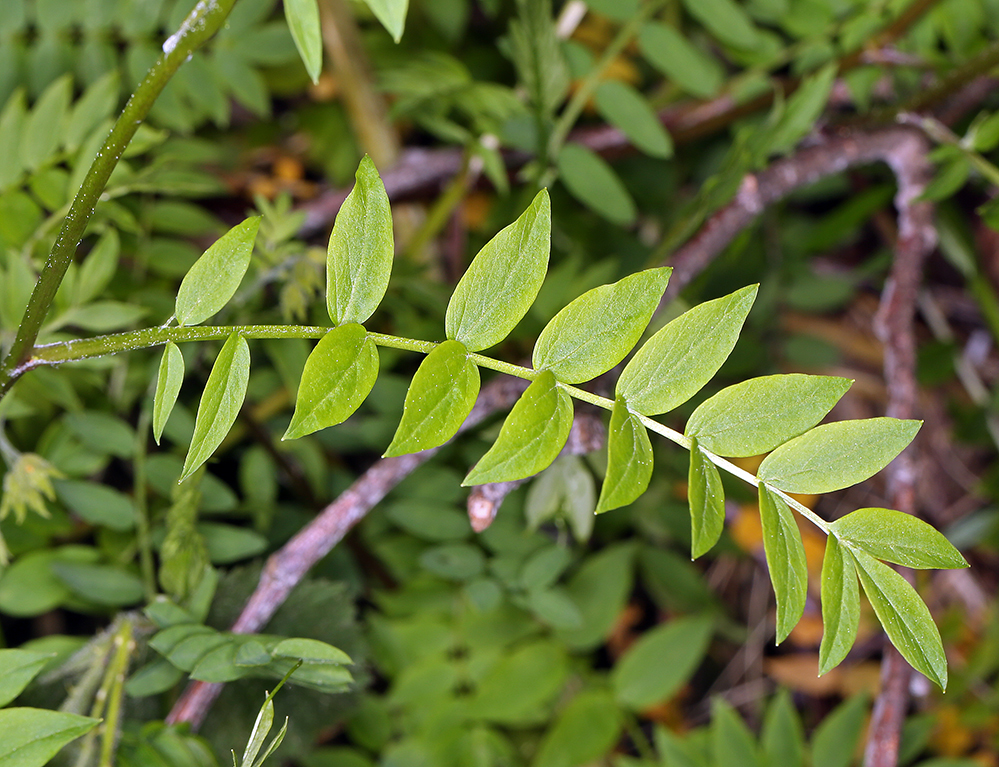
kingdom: Plantae
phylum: Tracheophyta
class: Magnoliopsida
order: Ericales
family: Polemoniaceae
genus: Polemonium
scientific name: Polemonium carneum
